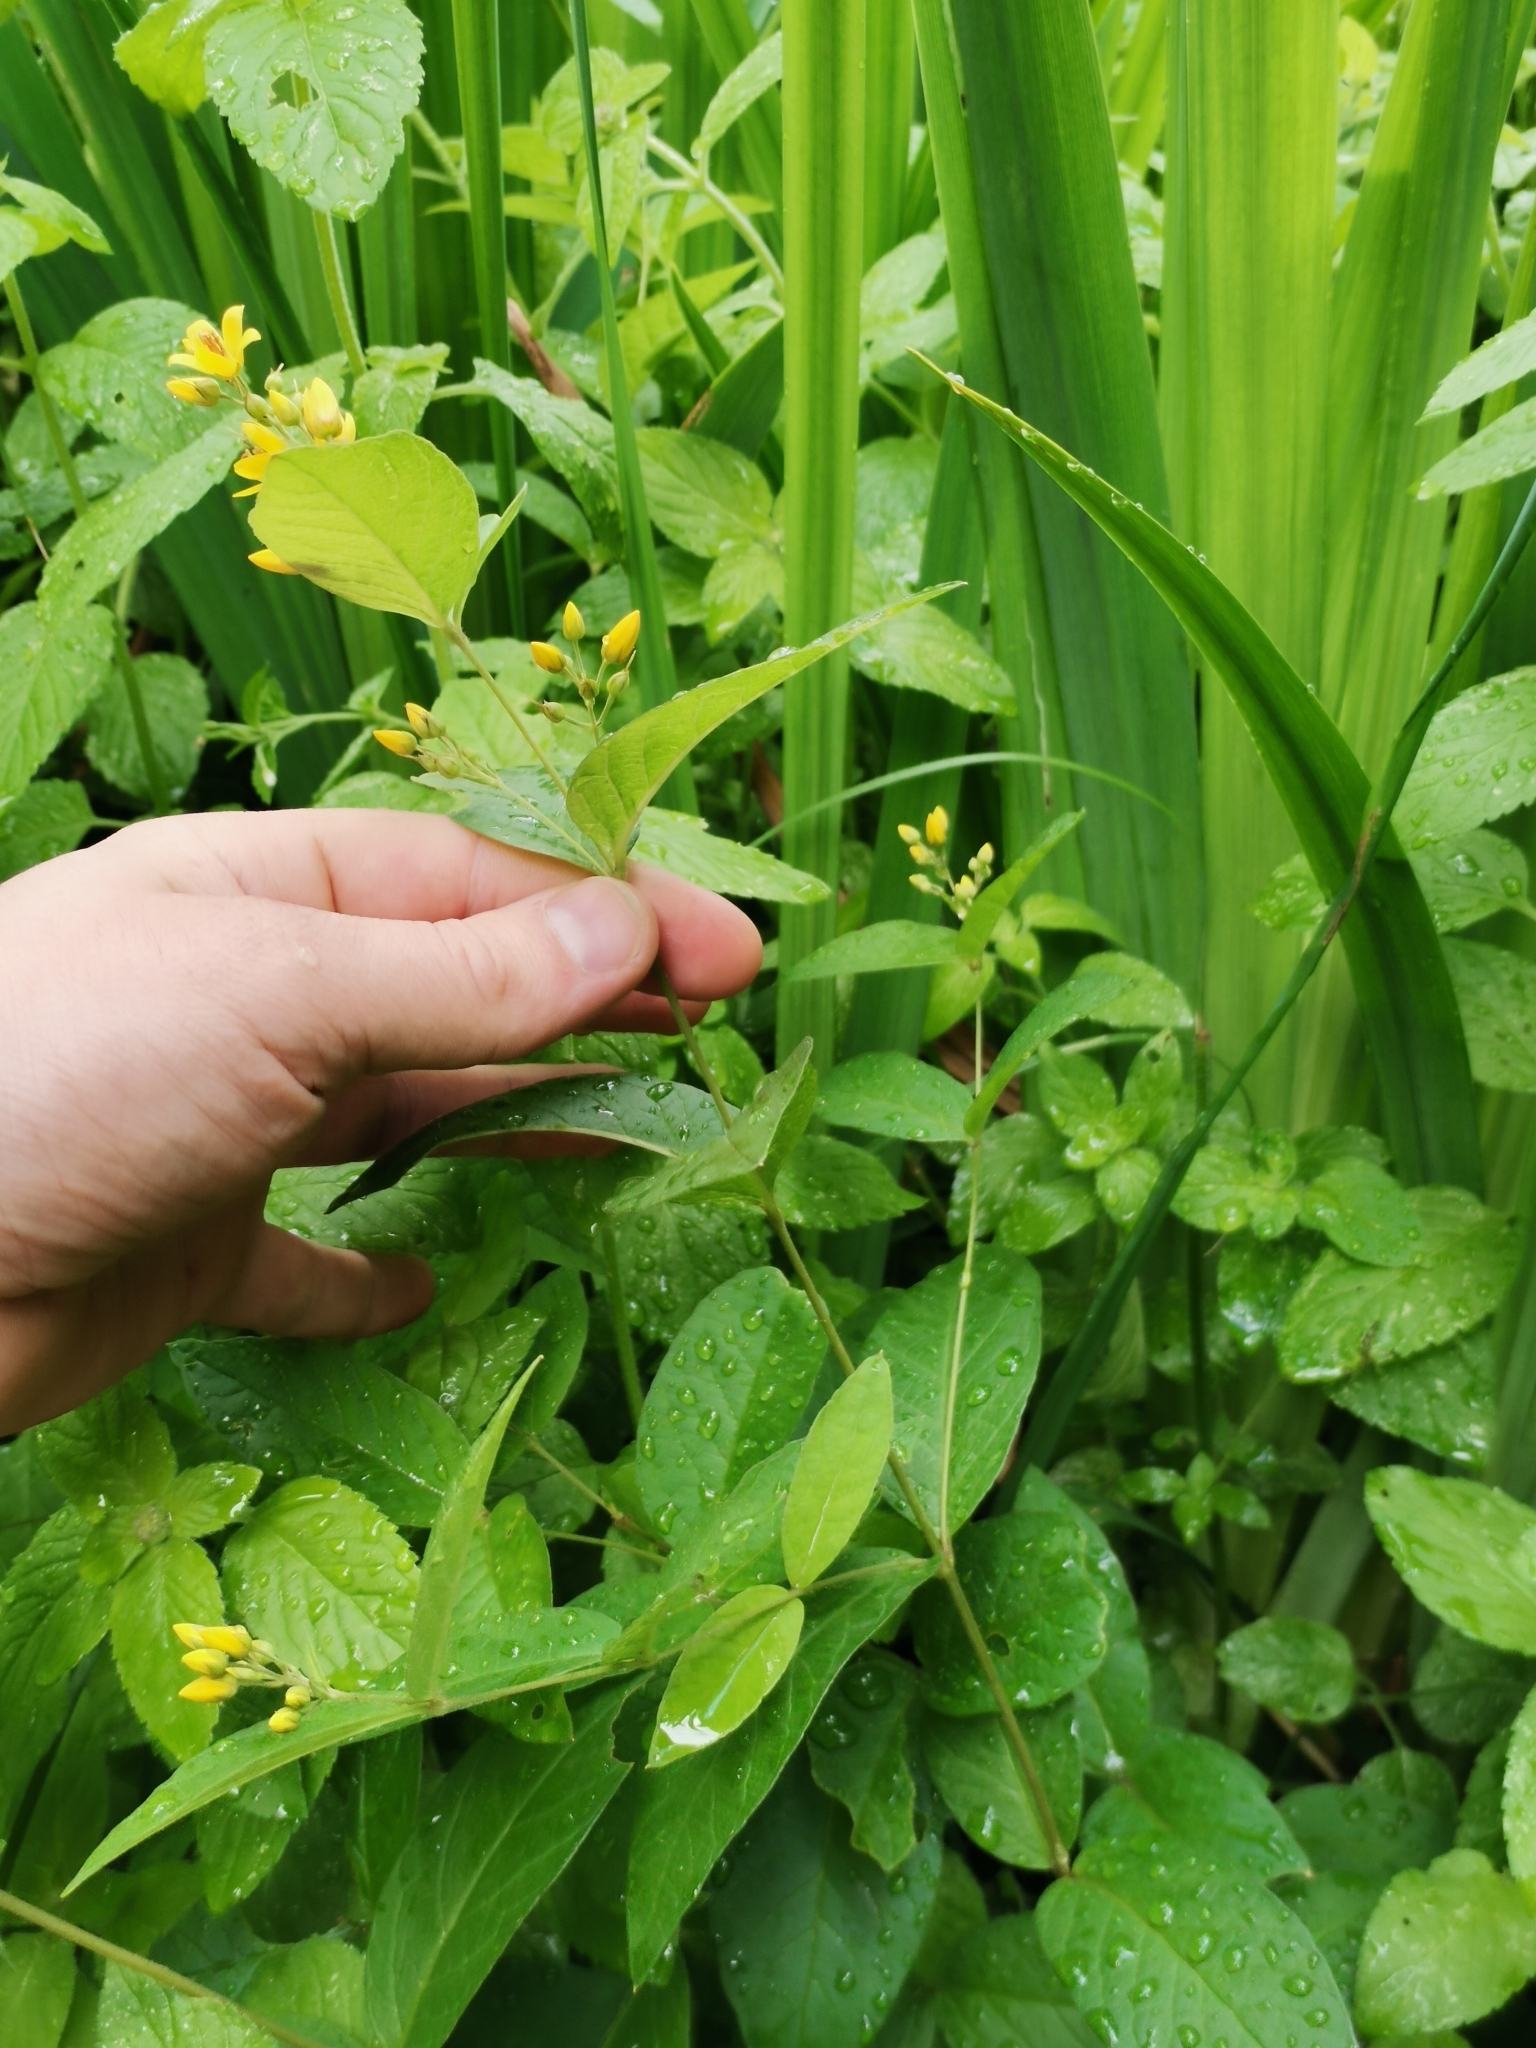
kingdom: Plantae
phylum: Tracheophyta
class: Magnoliopsida
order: Ericales
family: Primulaceae
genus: Lysimachia
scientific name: Lysimachia vulgaris
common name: Yellow loosestrife
